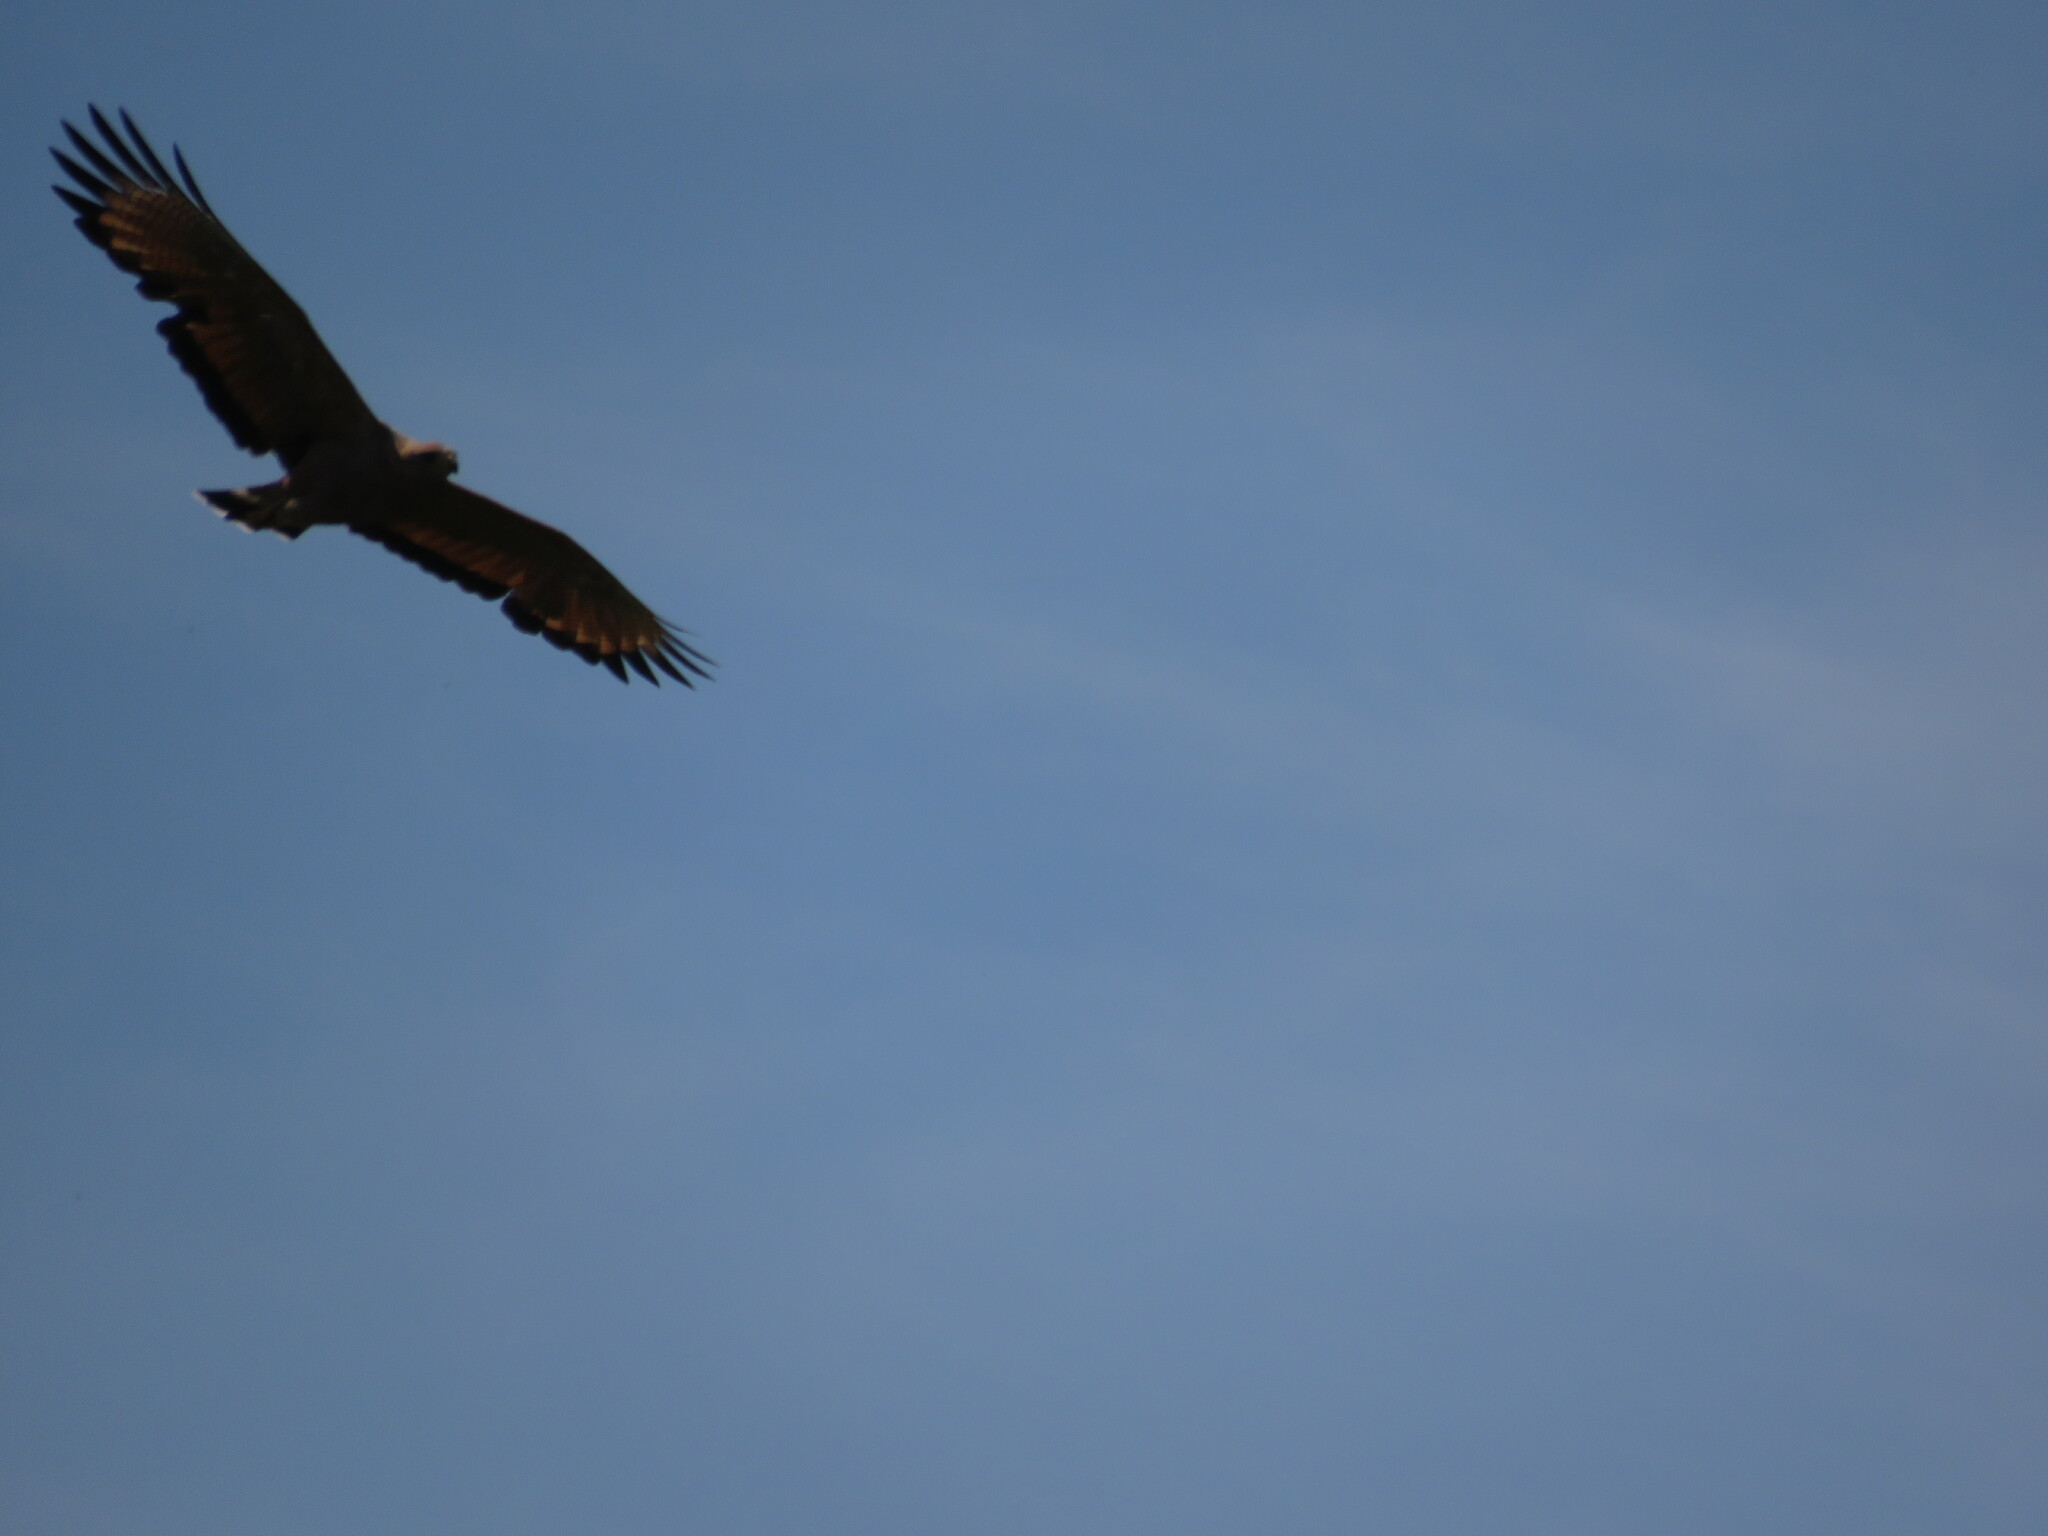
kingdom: Animalia
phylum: Chordata
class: Aves
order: Accipitriformes
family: Accipitridae
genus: Buteogallus
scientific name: Buteogallus meridionalis
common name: Savanna hawk
